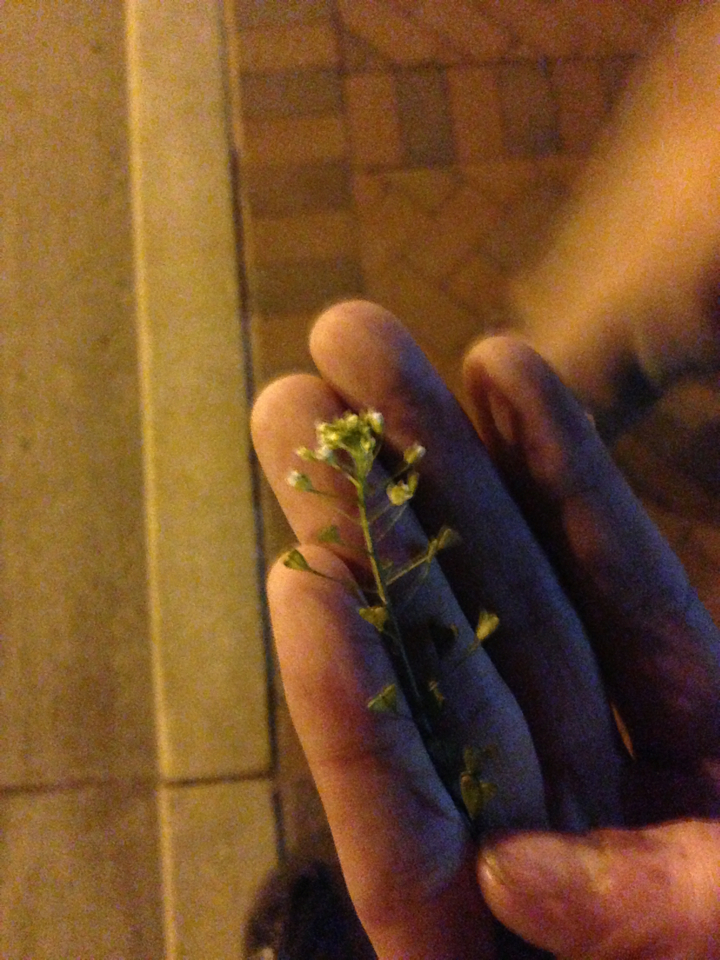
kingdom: Plantae
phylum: Tracheophyta
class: Magnoliopsida
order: Brassicales
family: Brassicaceae
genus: Capsella
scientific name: Capsella bursa-pastoris
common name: Shepherd's purse
